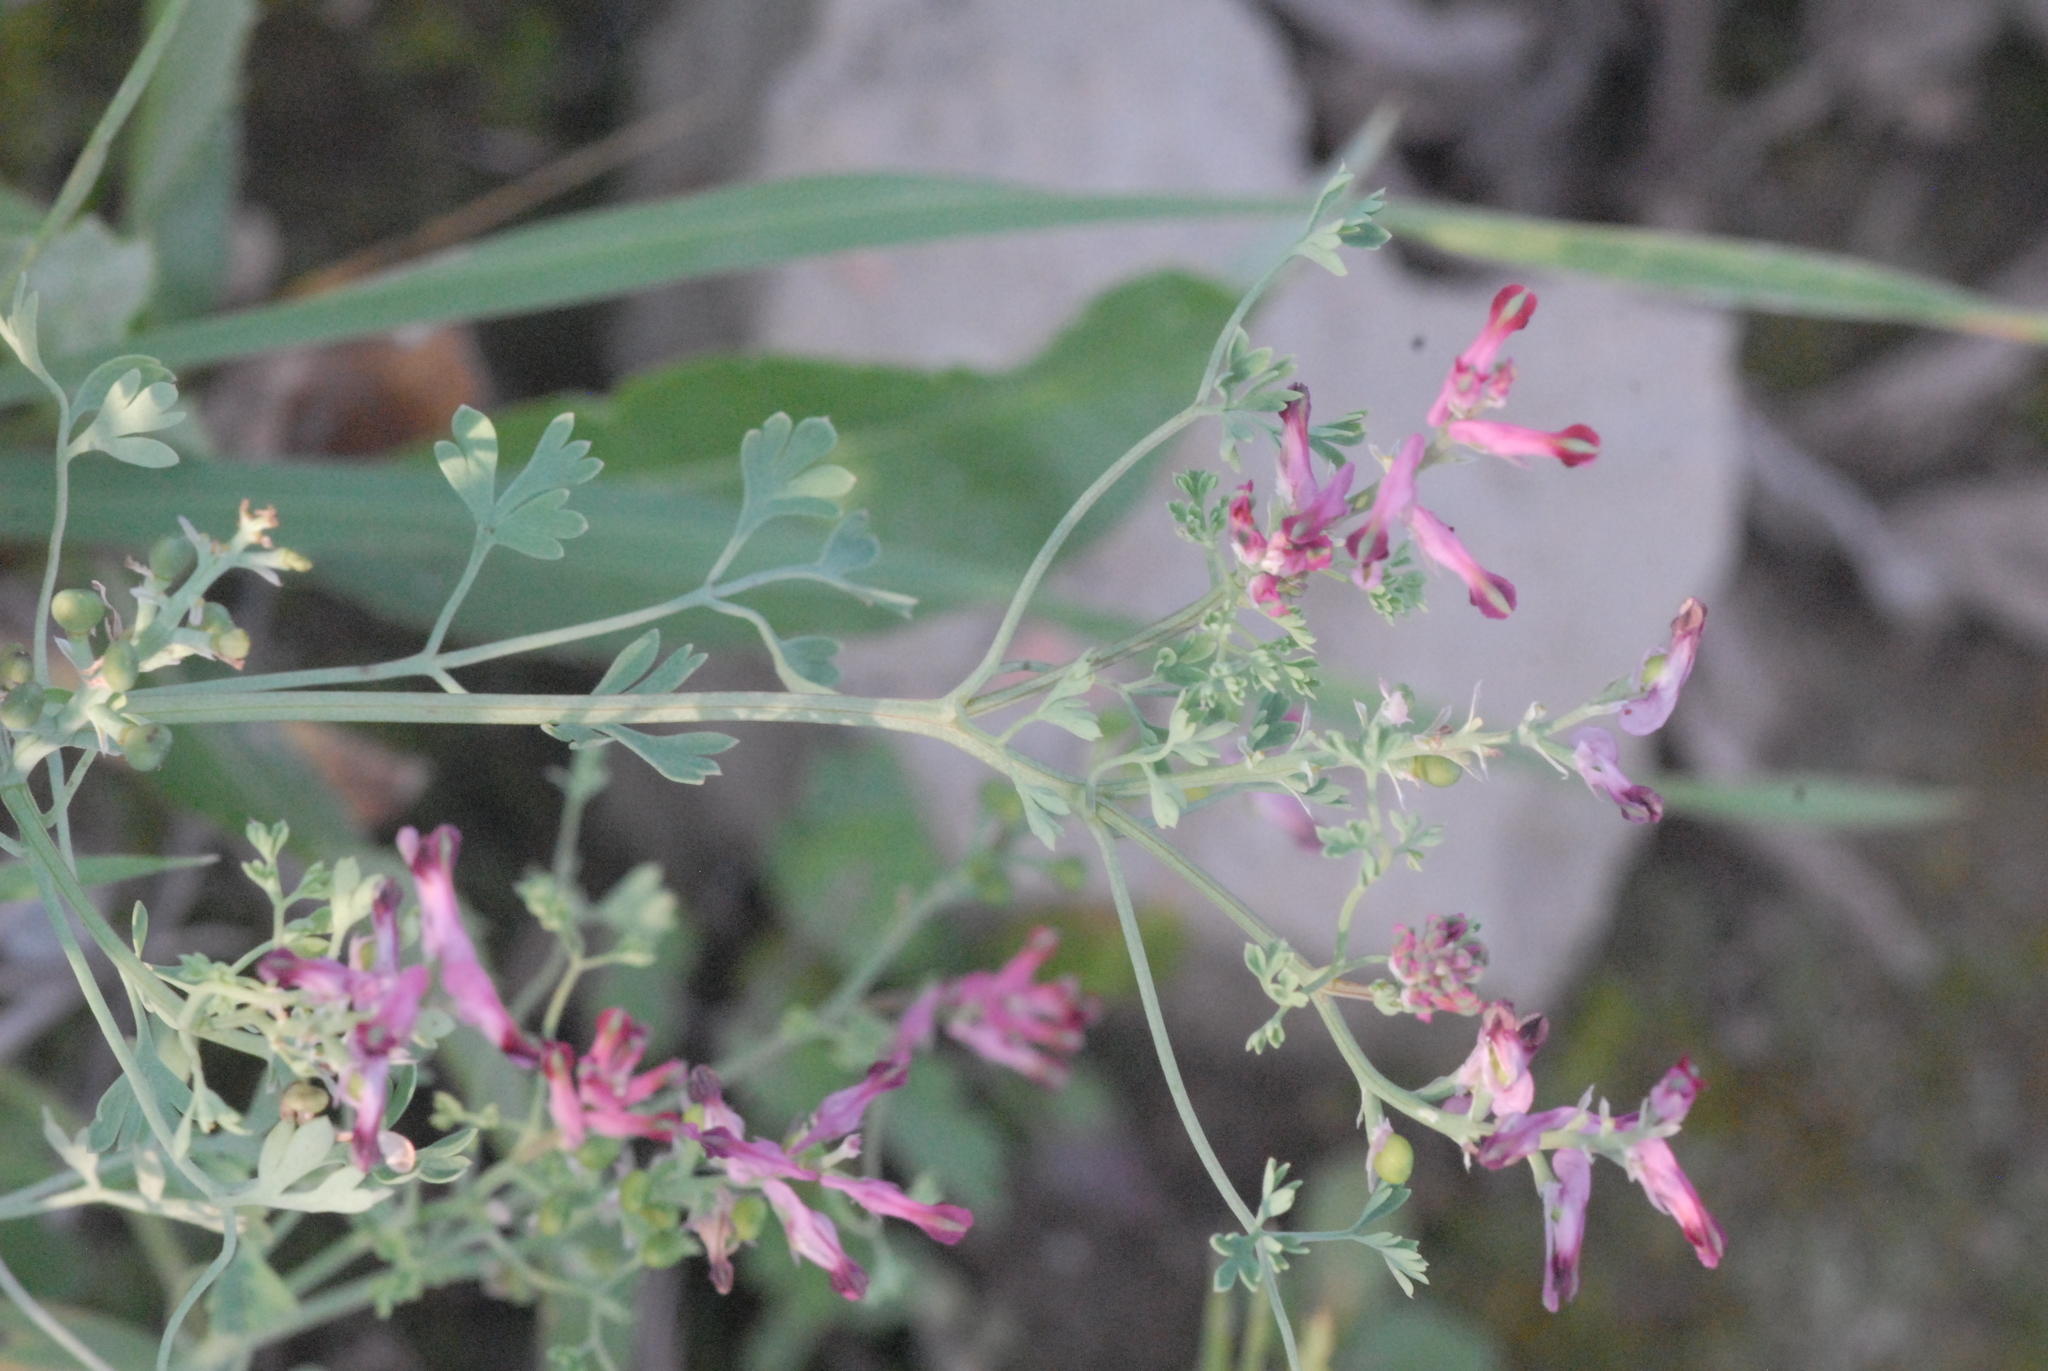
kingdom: Plantae
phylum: Tracheophyta
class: Magnoliopsida
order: Ranunculales
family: Papaveraceae
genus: Fumaria
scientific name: Fumaria officinalis
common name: Common fumitory
